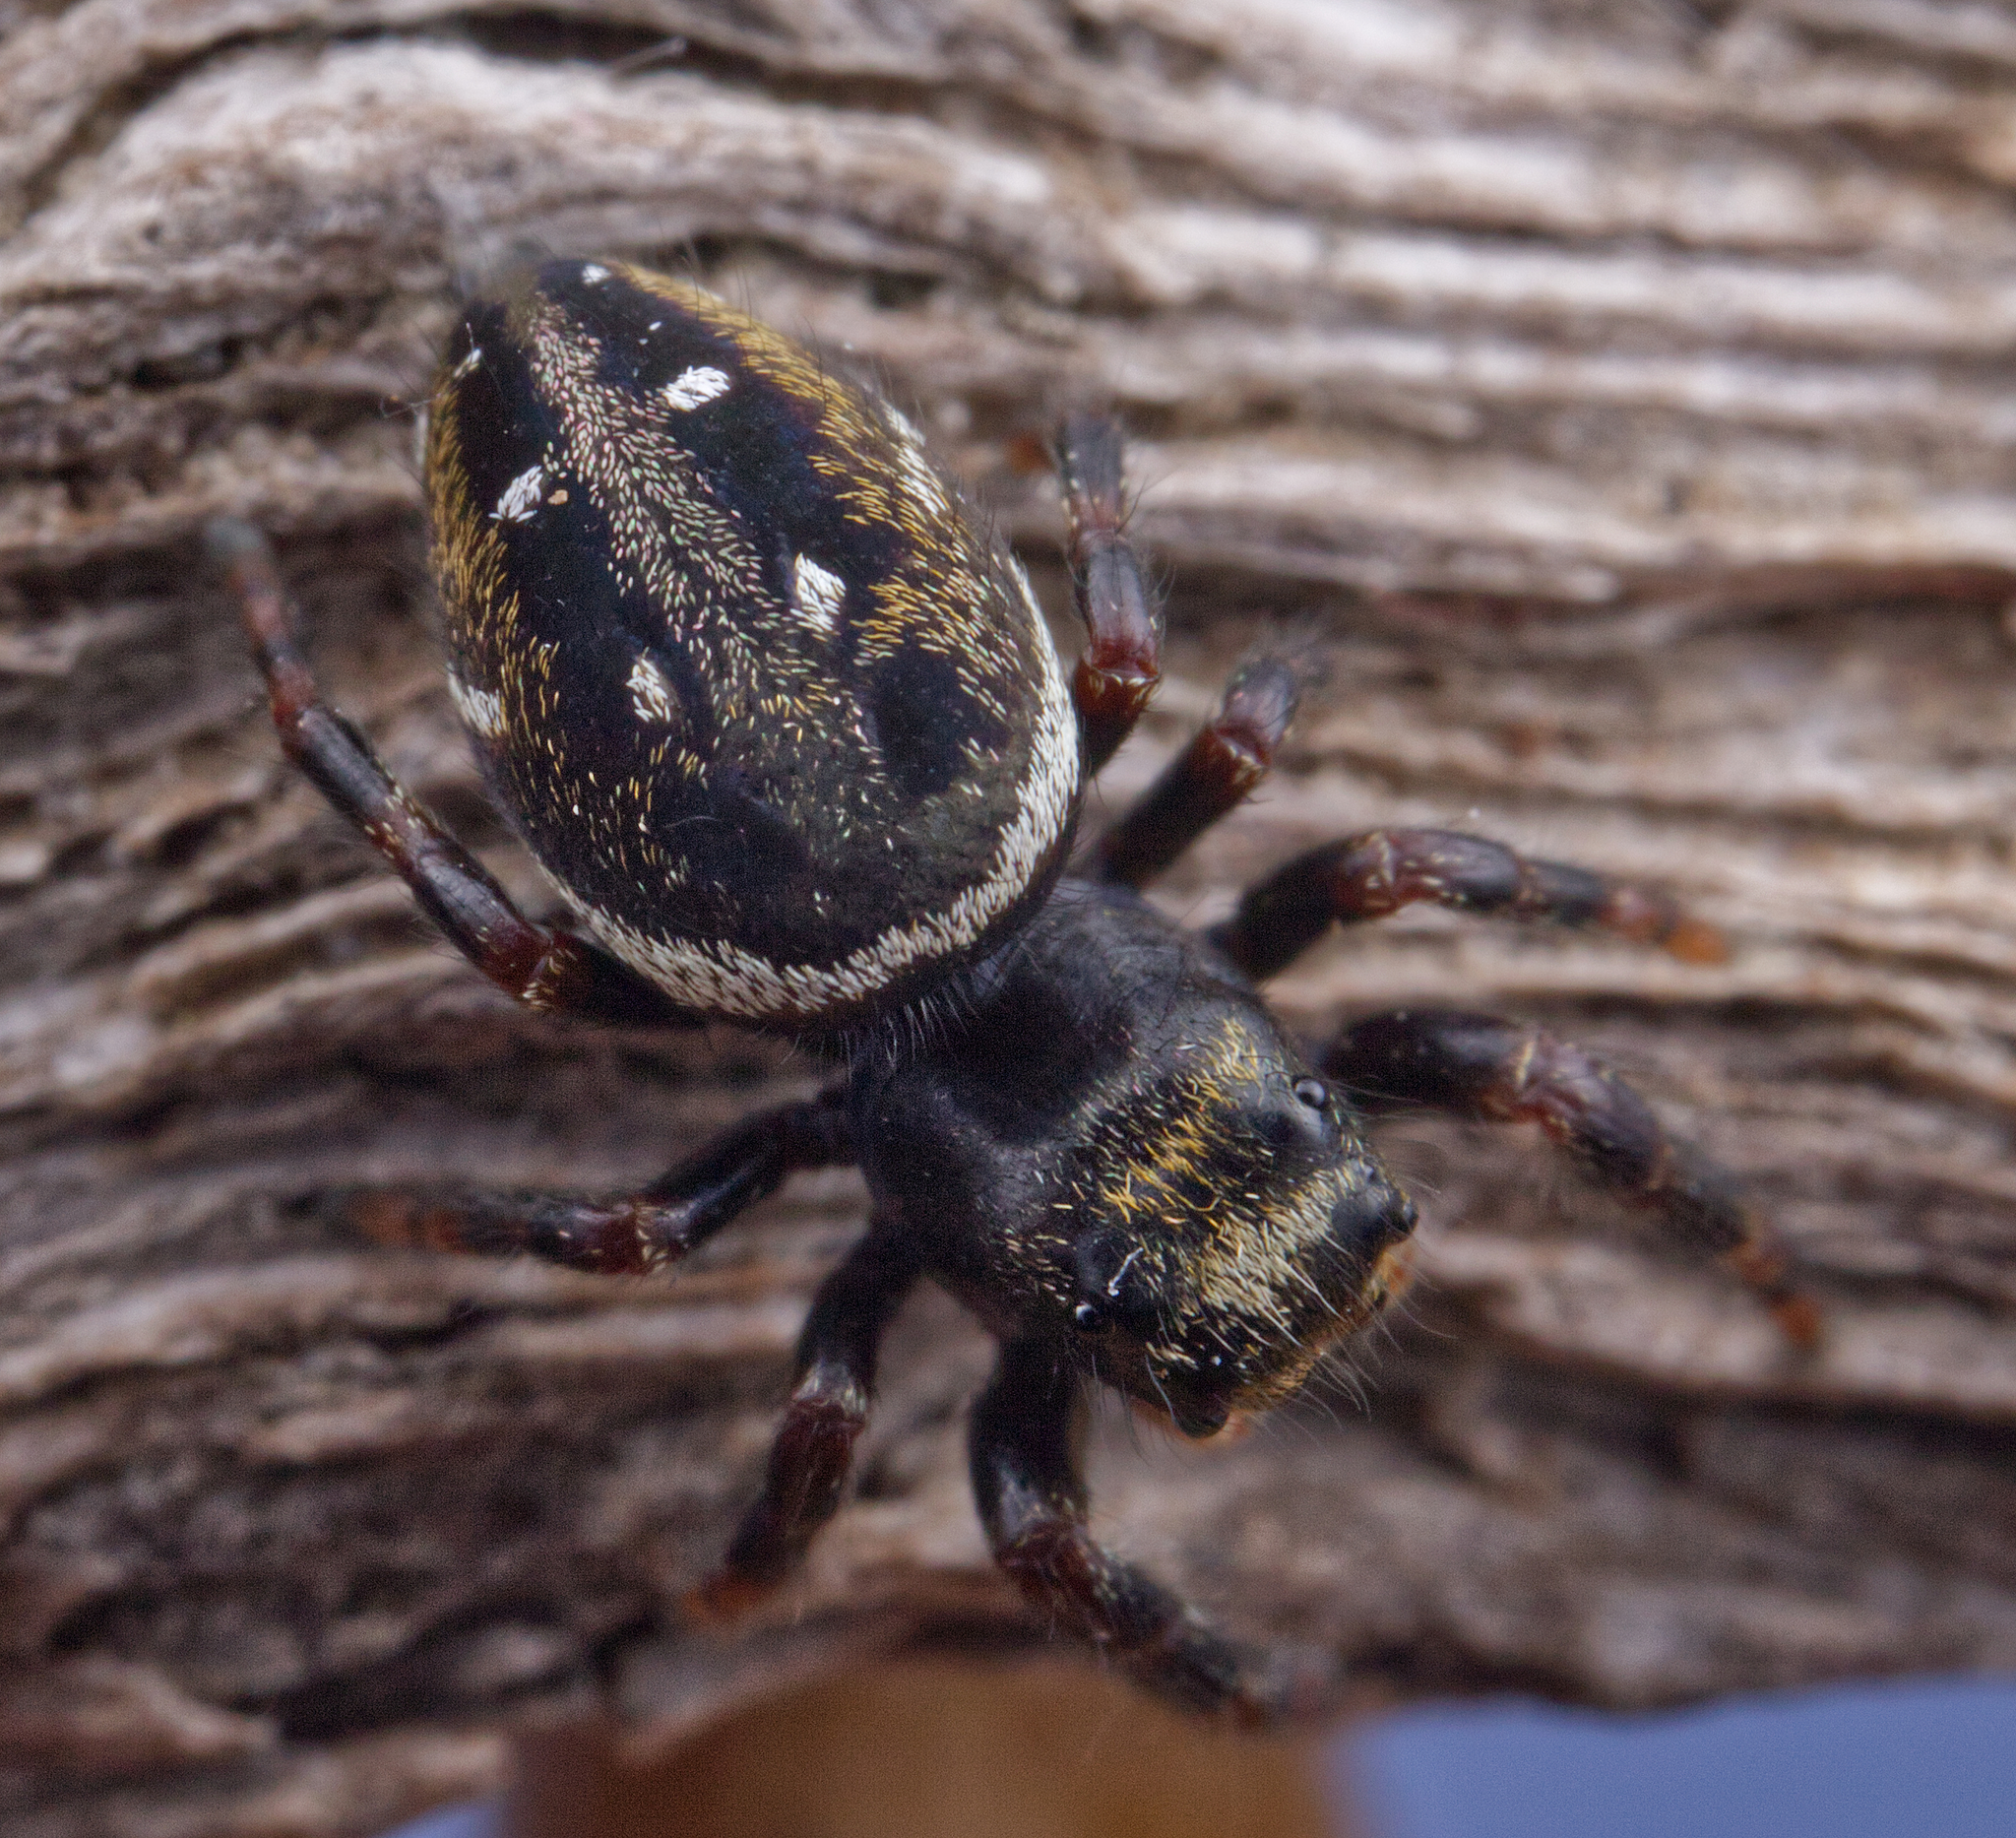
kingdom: Animalia
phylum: Arthropoda
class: Arachnida
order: Araneae
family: Salticidae
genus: Phidippus
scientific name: Phidippus clarus
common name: Brilliant jumping spider
